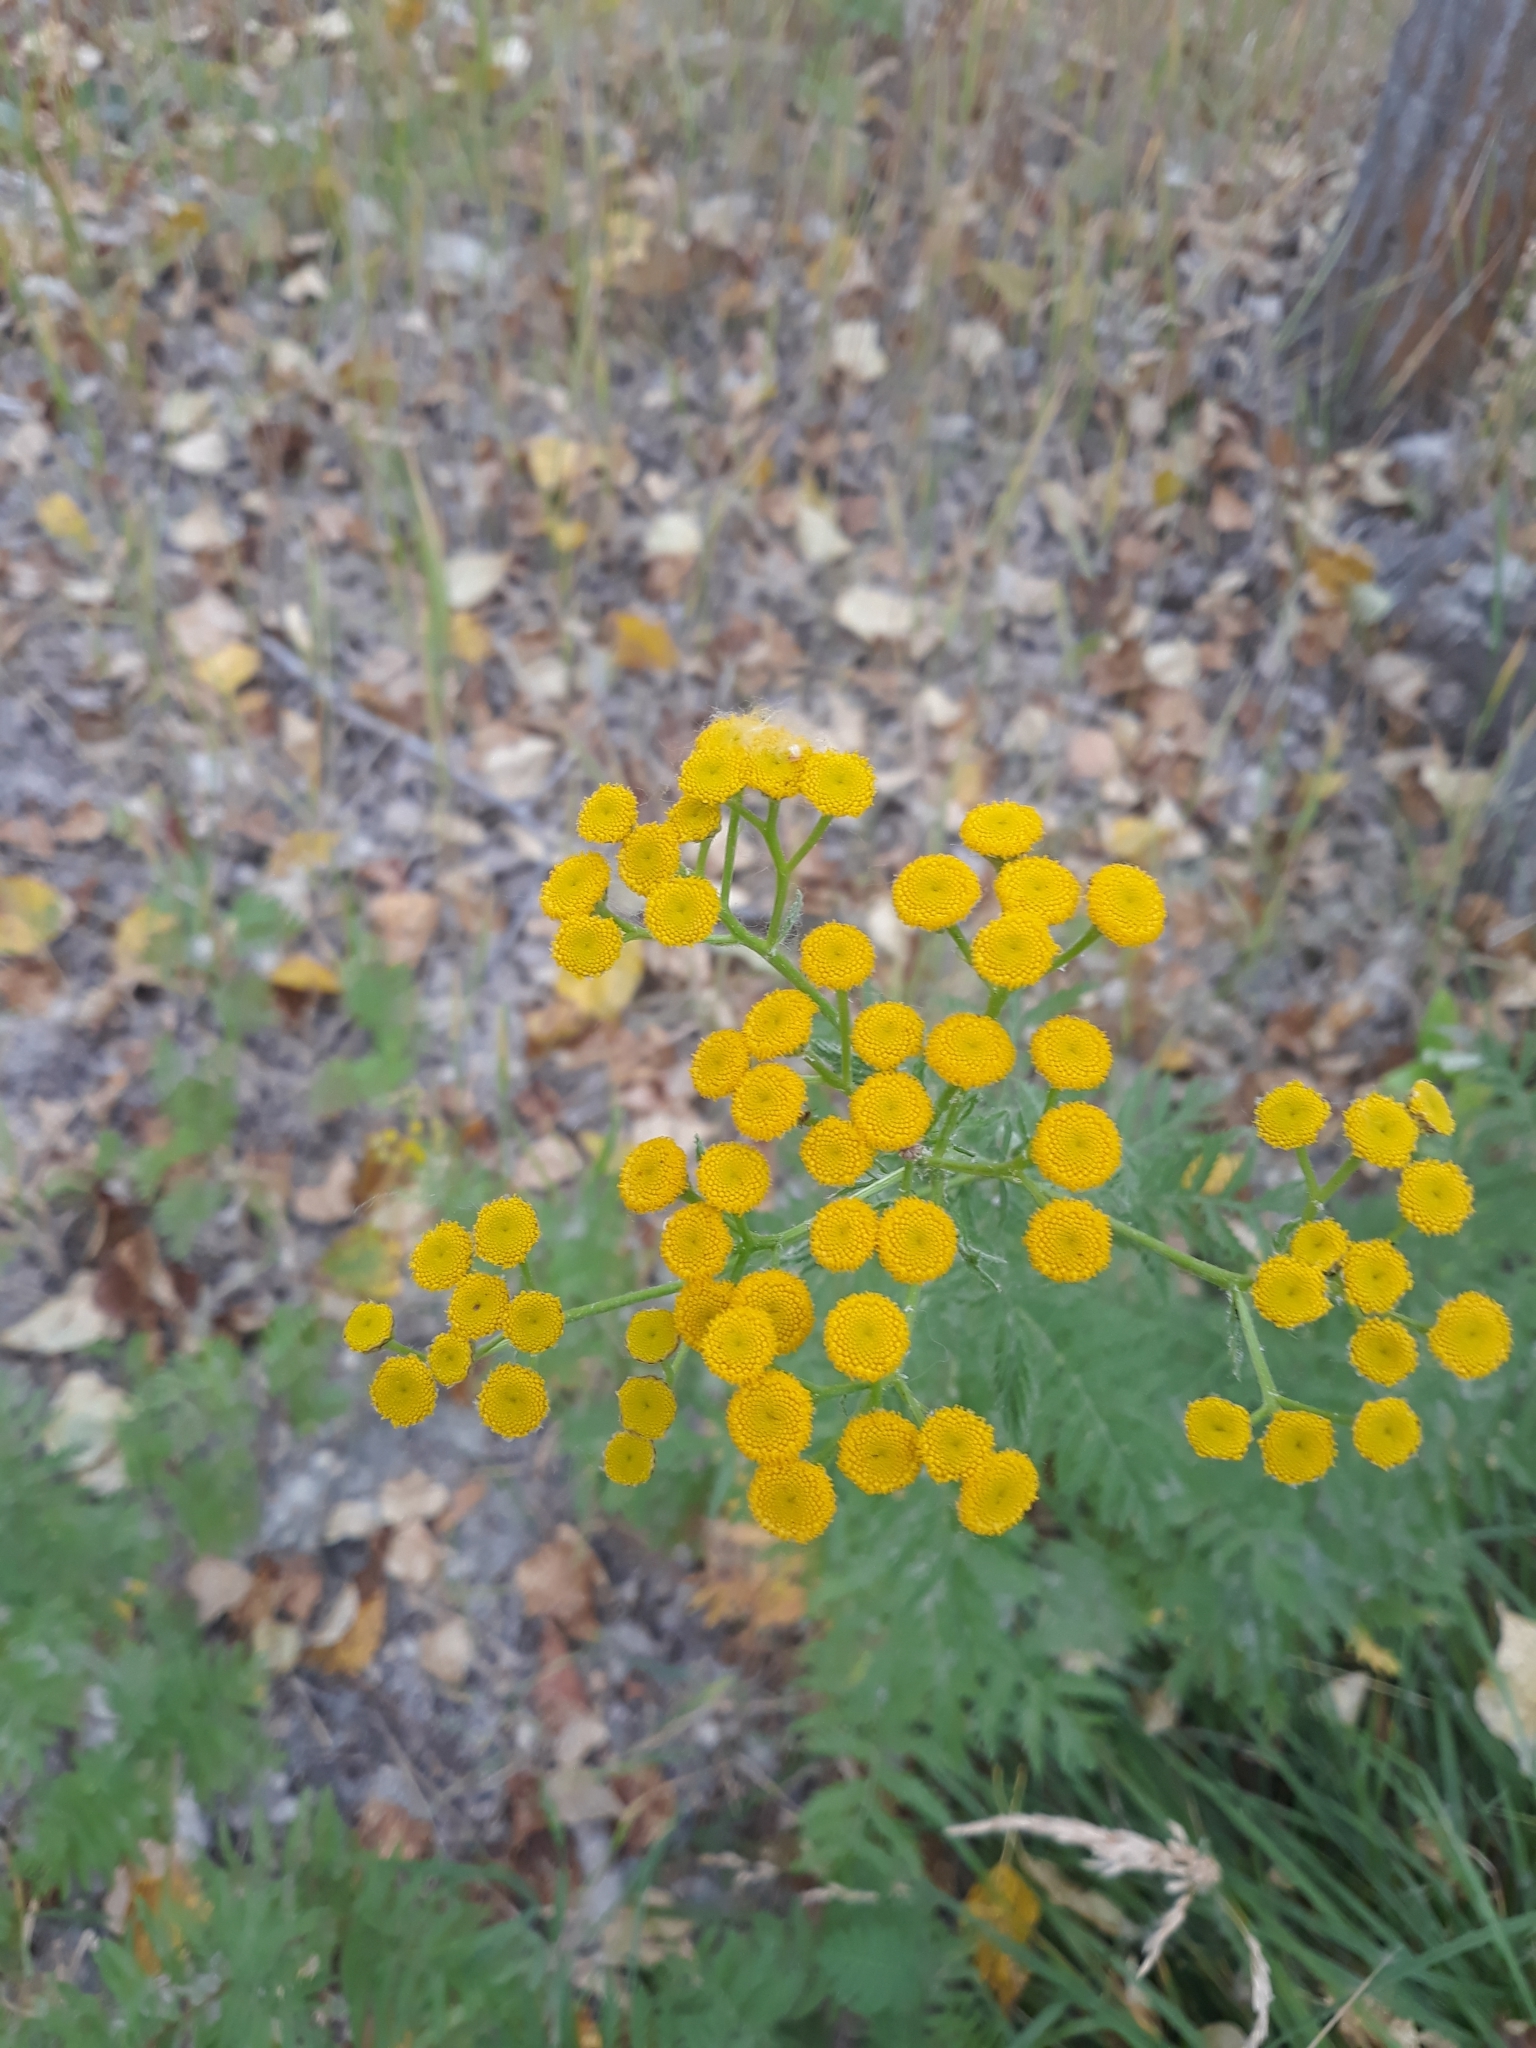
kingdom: Plantae
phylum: Tracheophyta
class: Magnoliopsida
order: Asterales
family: Asteraceae
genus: Tanacetum
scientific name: Tanacetum vulgare
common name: Common tansy
